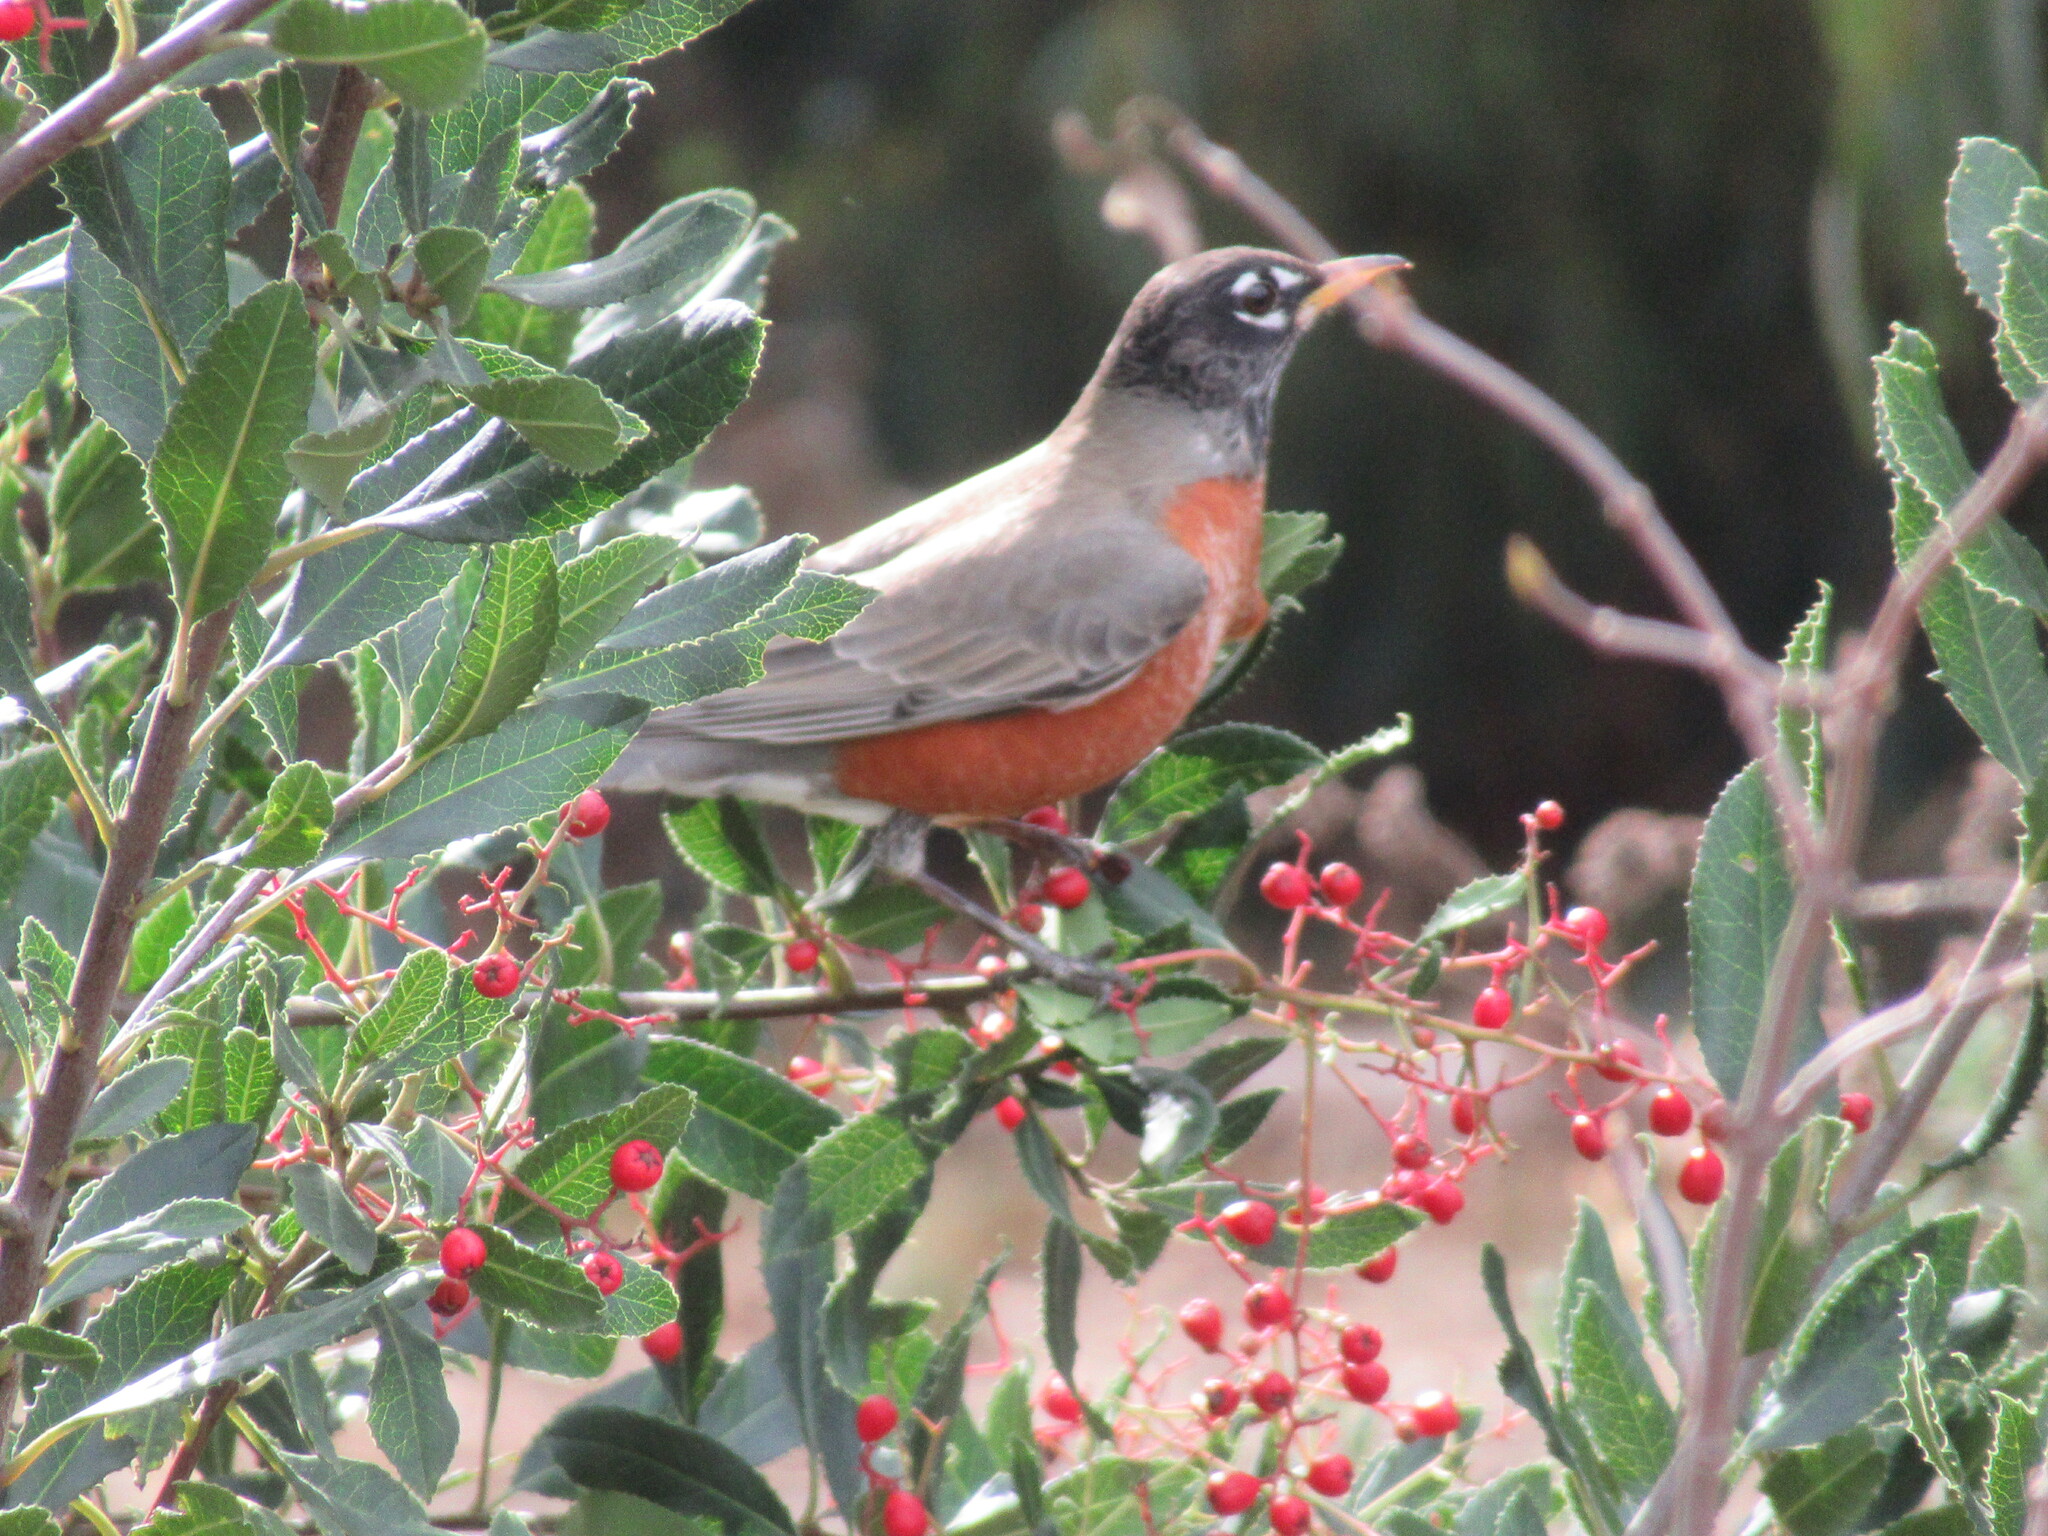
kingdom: Animalia
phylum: Chordata
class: Aves
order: Passeriformes
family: Turdidae
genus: Turdus
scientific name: Turdus migratorius
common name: American robin
